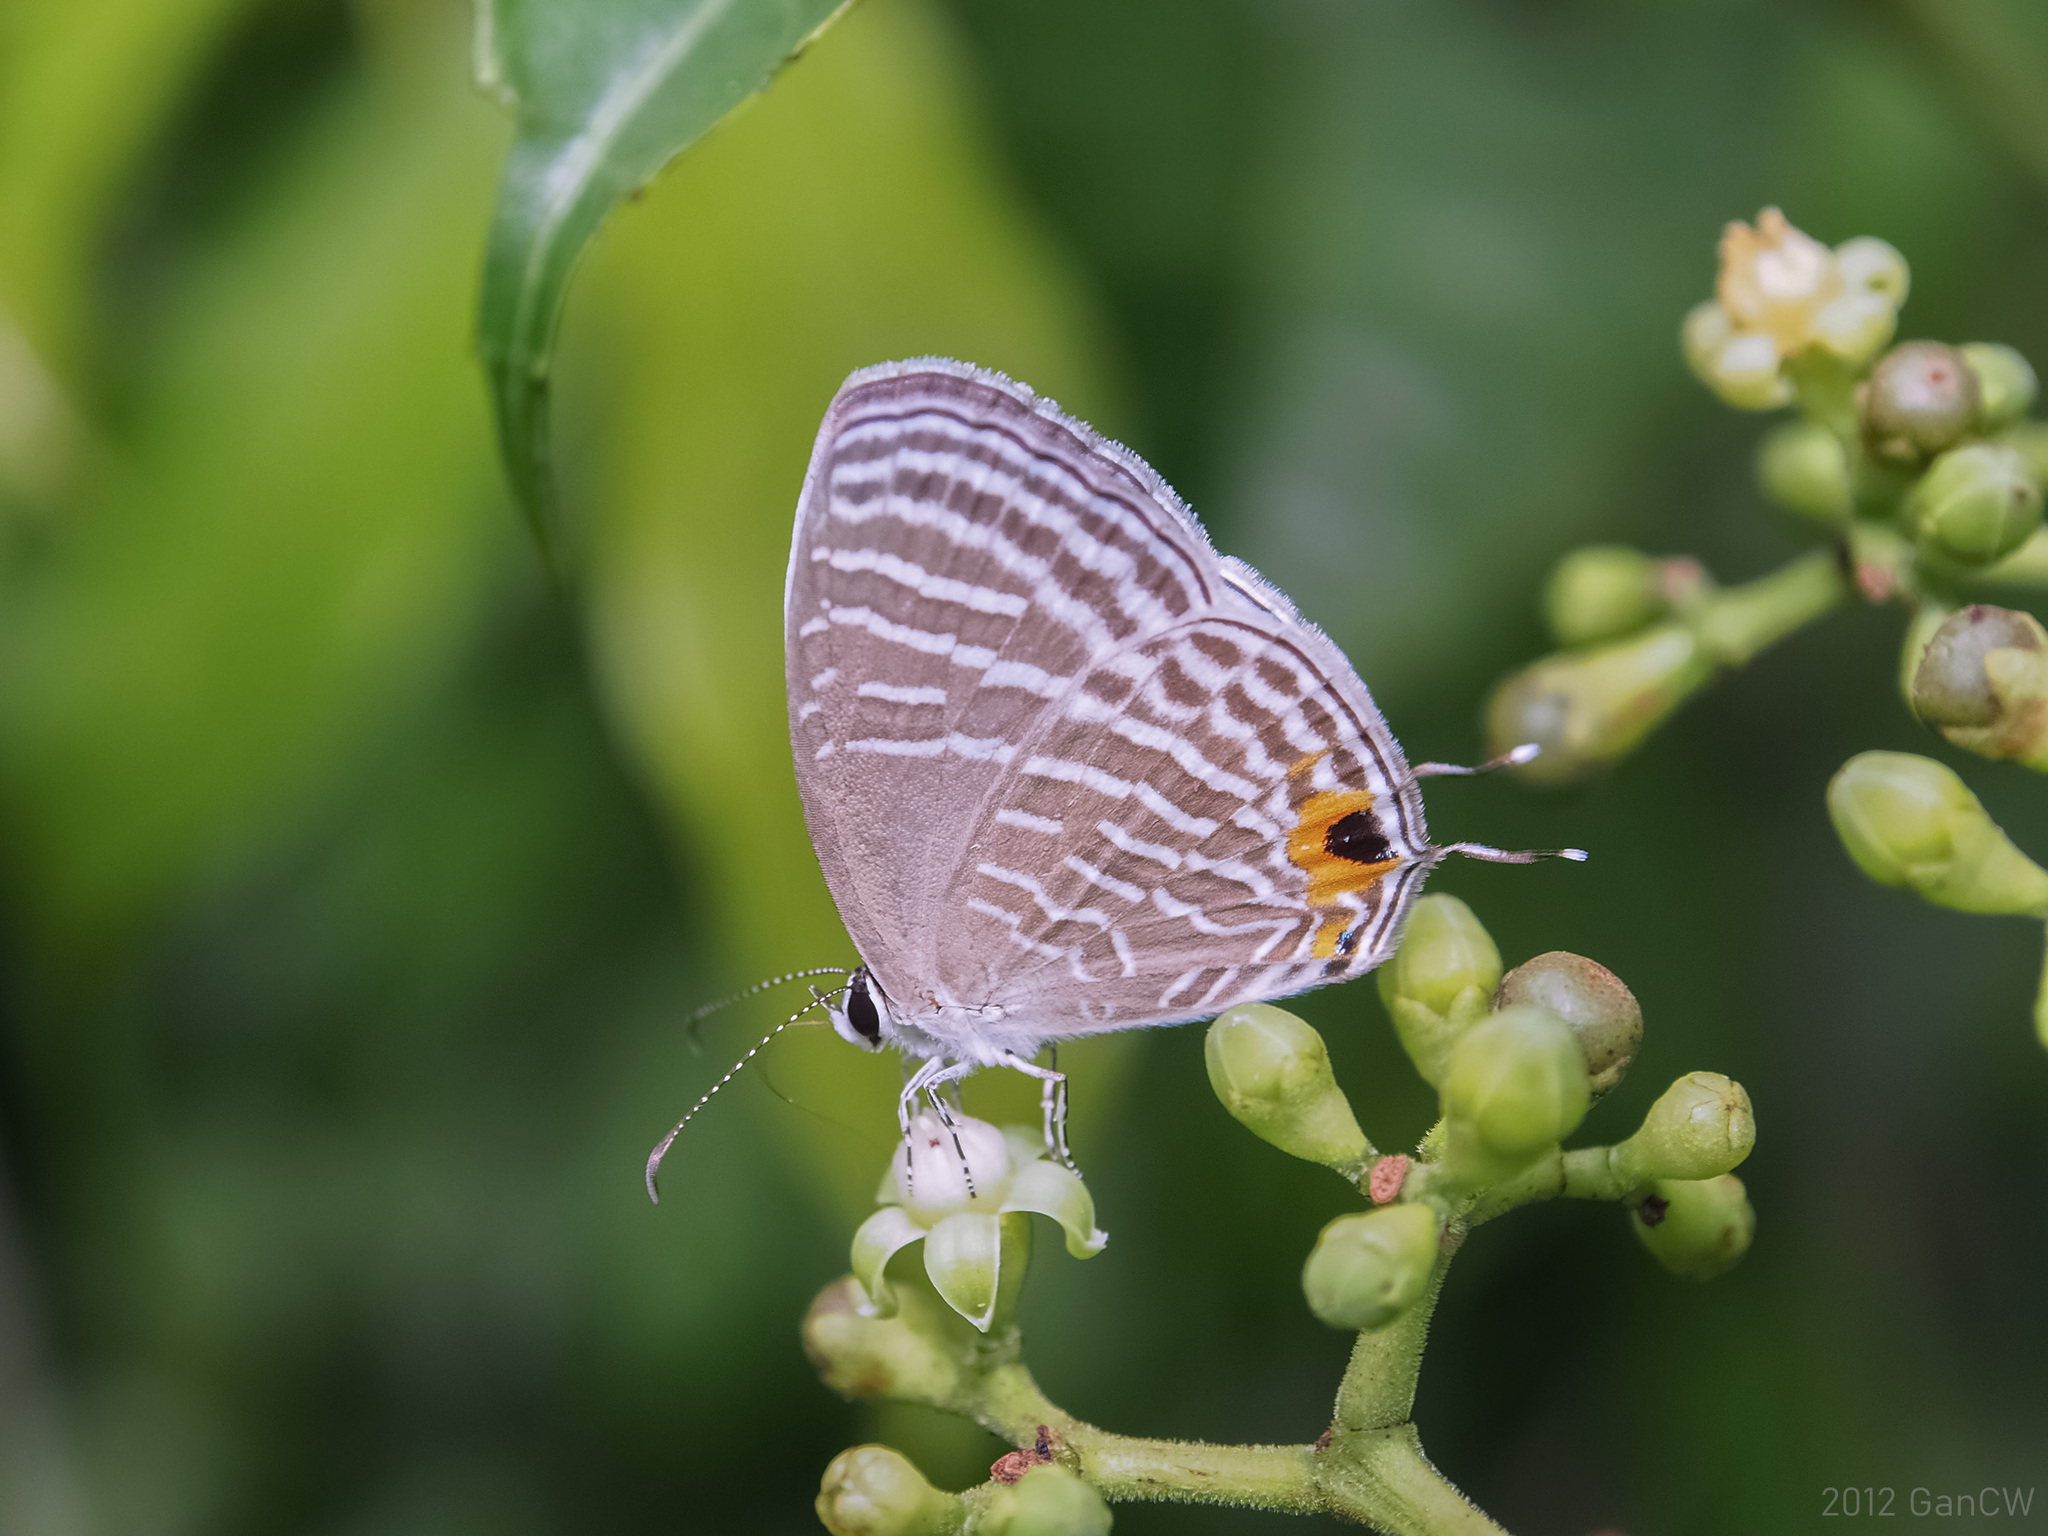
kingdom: Animalia
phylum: Arthropoda
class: Insecta
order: Lepidoptera
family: Lycaenidae
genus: Jamides
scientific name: Jamides celeno
